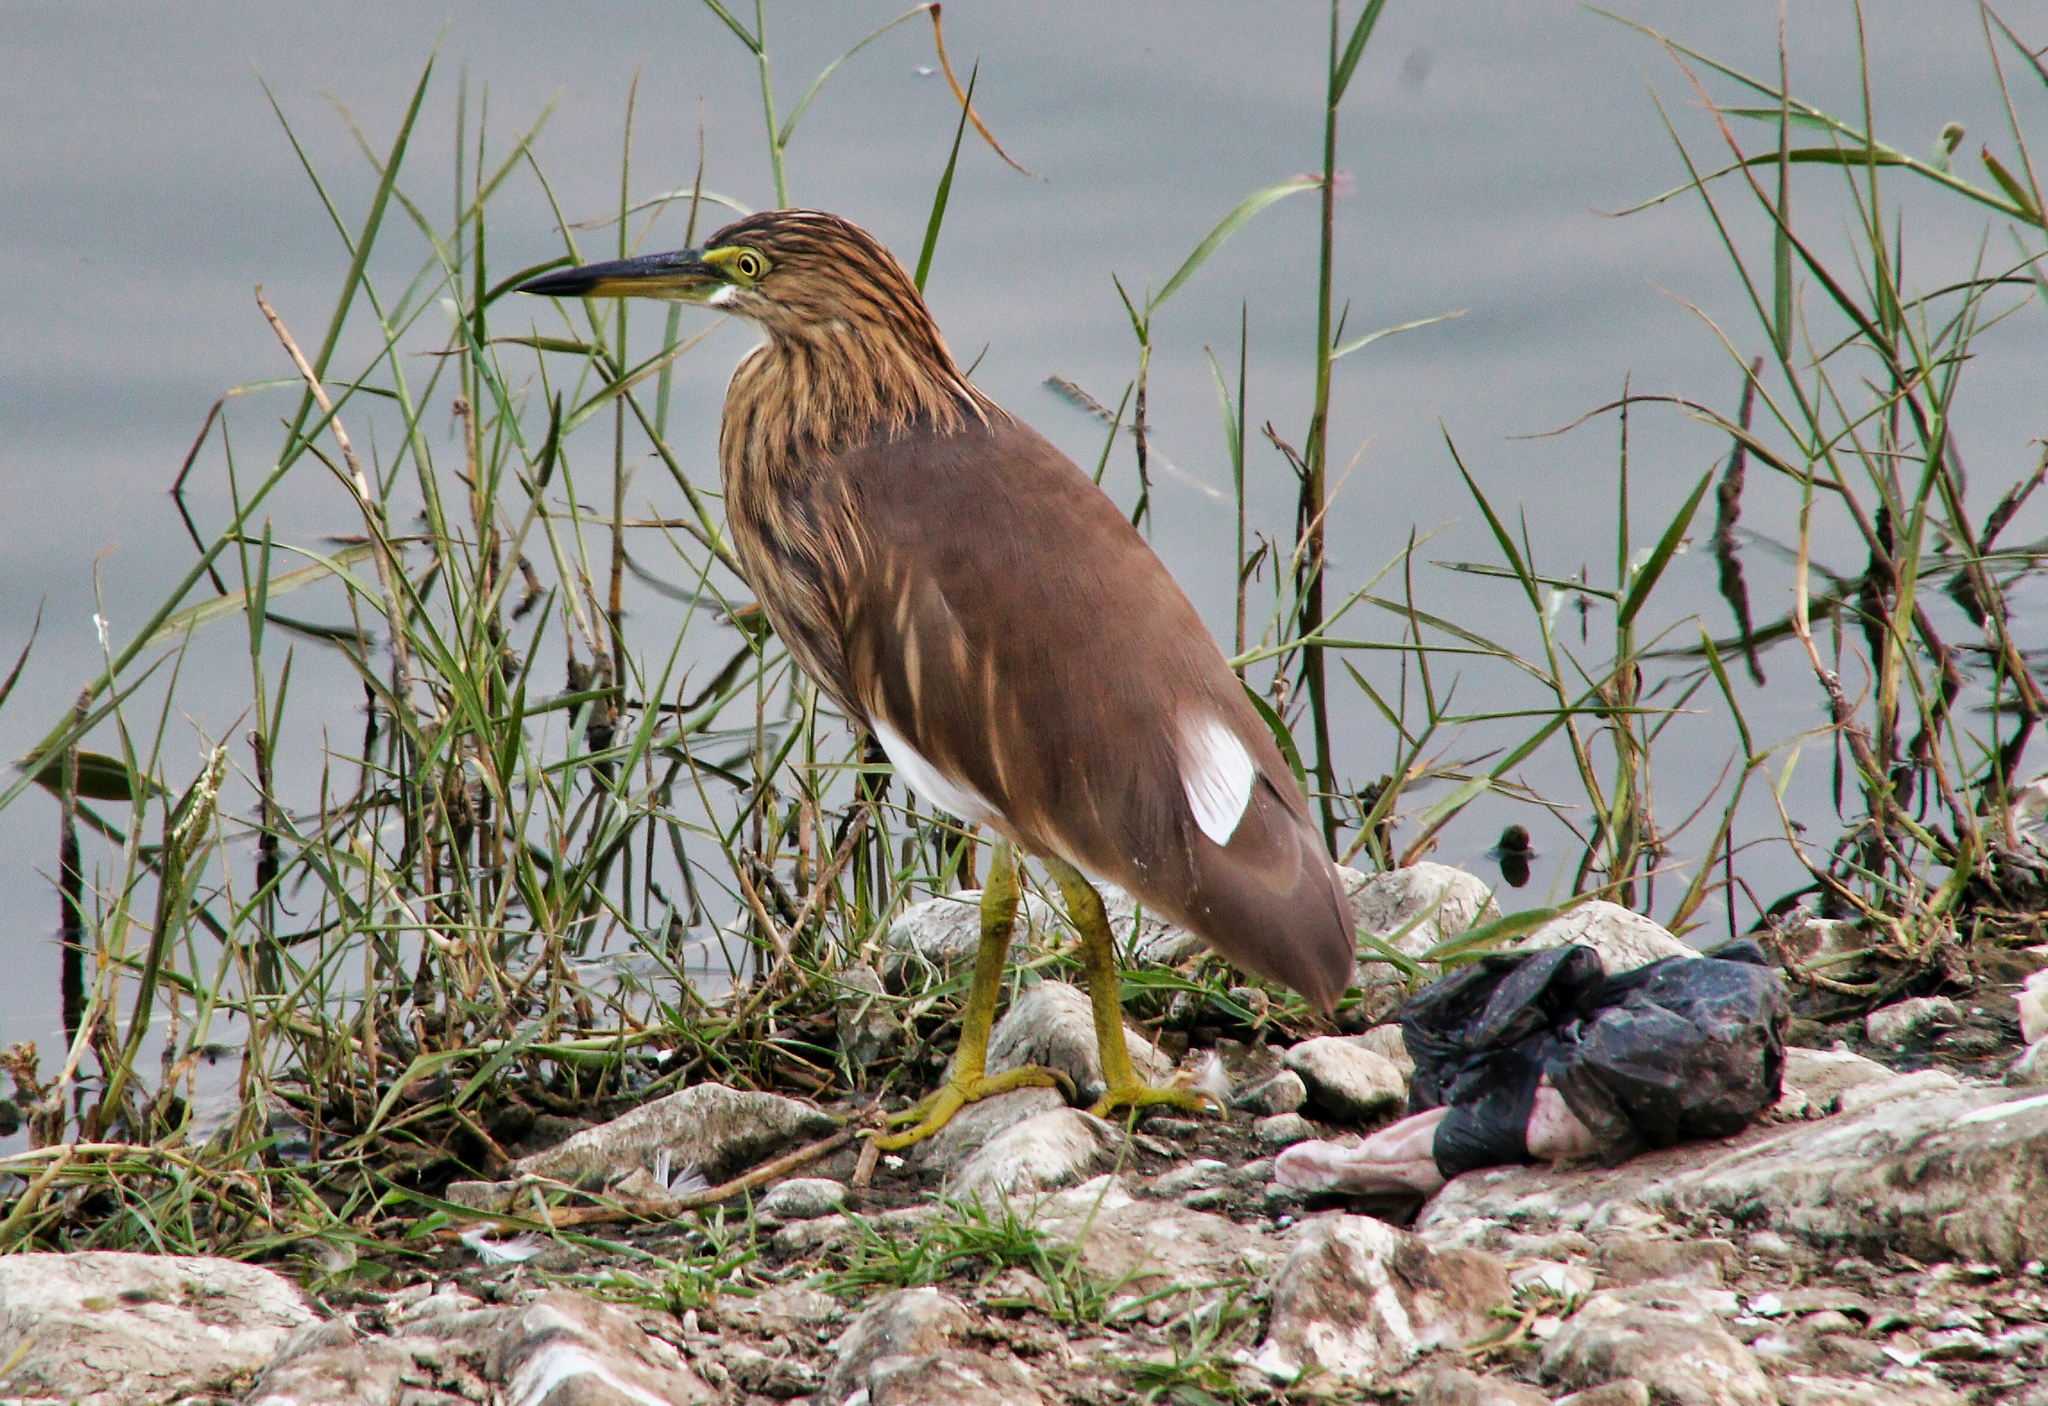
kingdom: Animalia
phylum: Chordata
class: Aves
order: Pelecaniformes
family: Ardeidae
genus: Ardeola
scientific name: Ardeola grayii
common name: Indian pond heron
